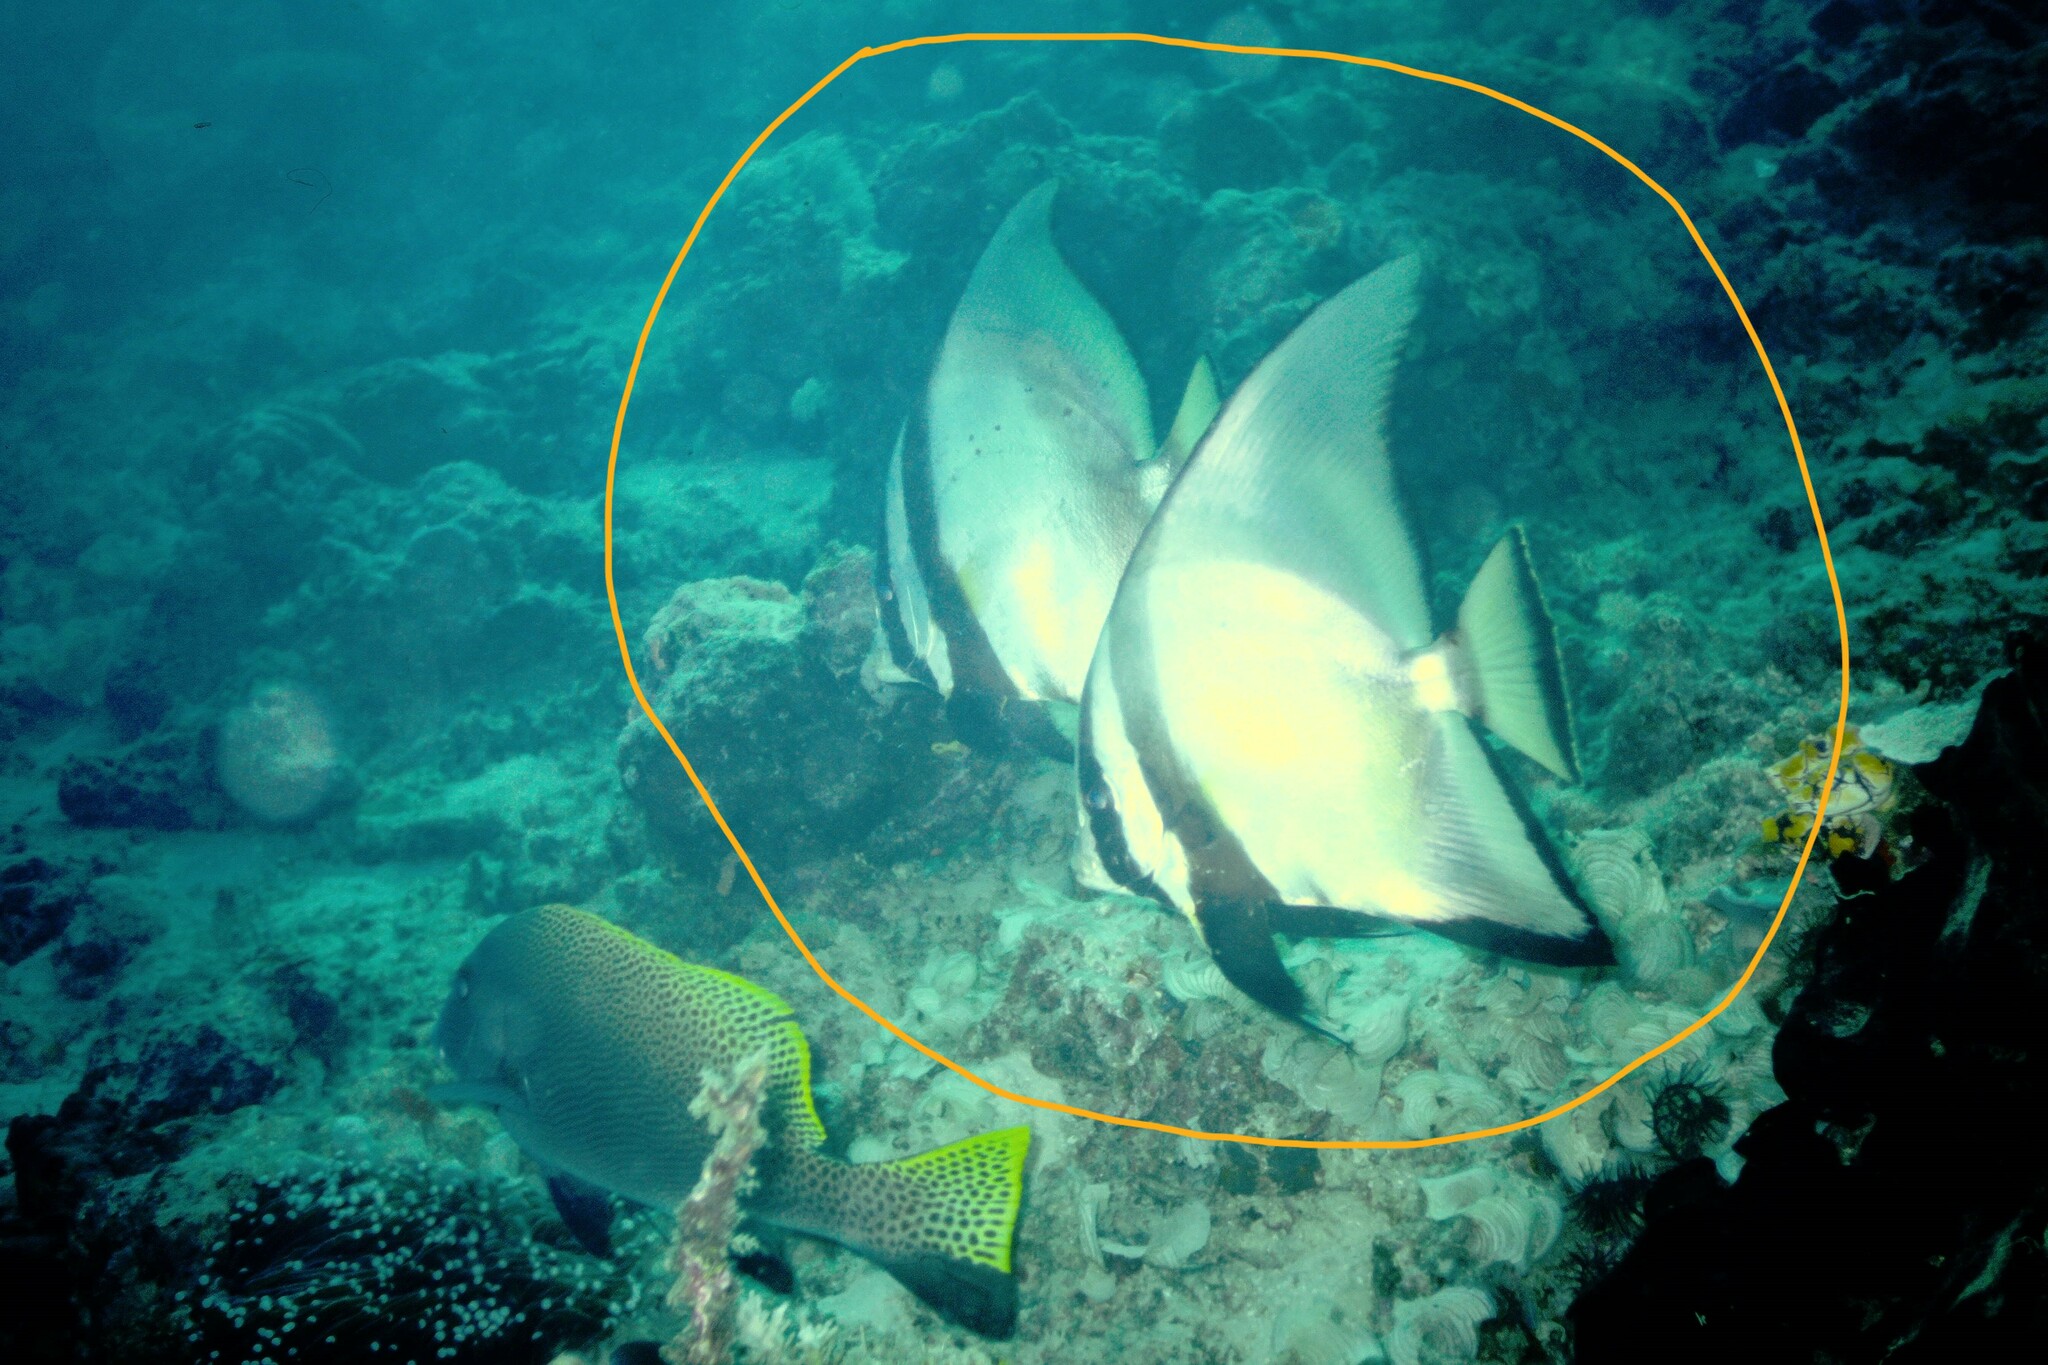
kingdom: Animalia
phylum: Chordata
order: Perciformes
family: Ephippidae
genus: Platax
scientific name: Platax pinnatus
